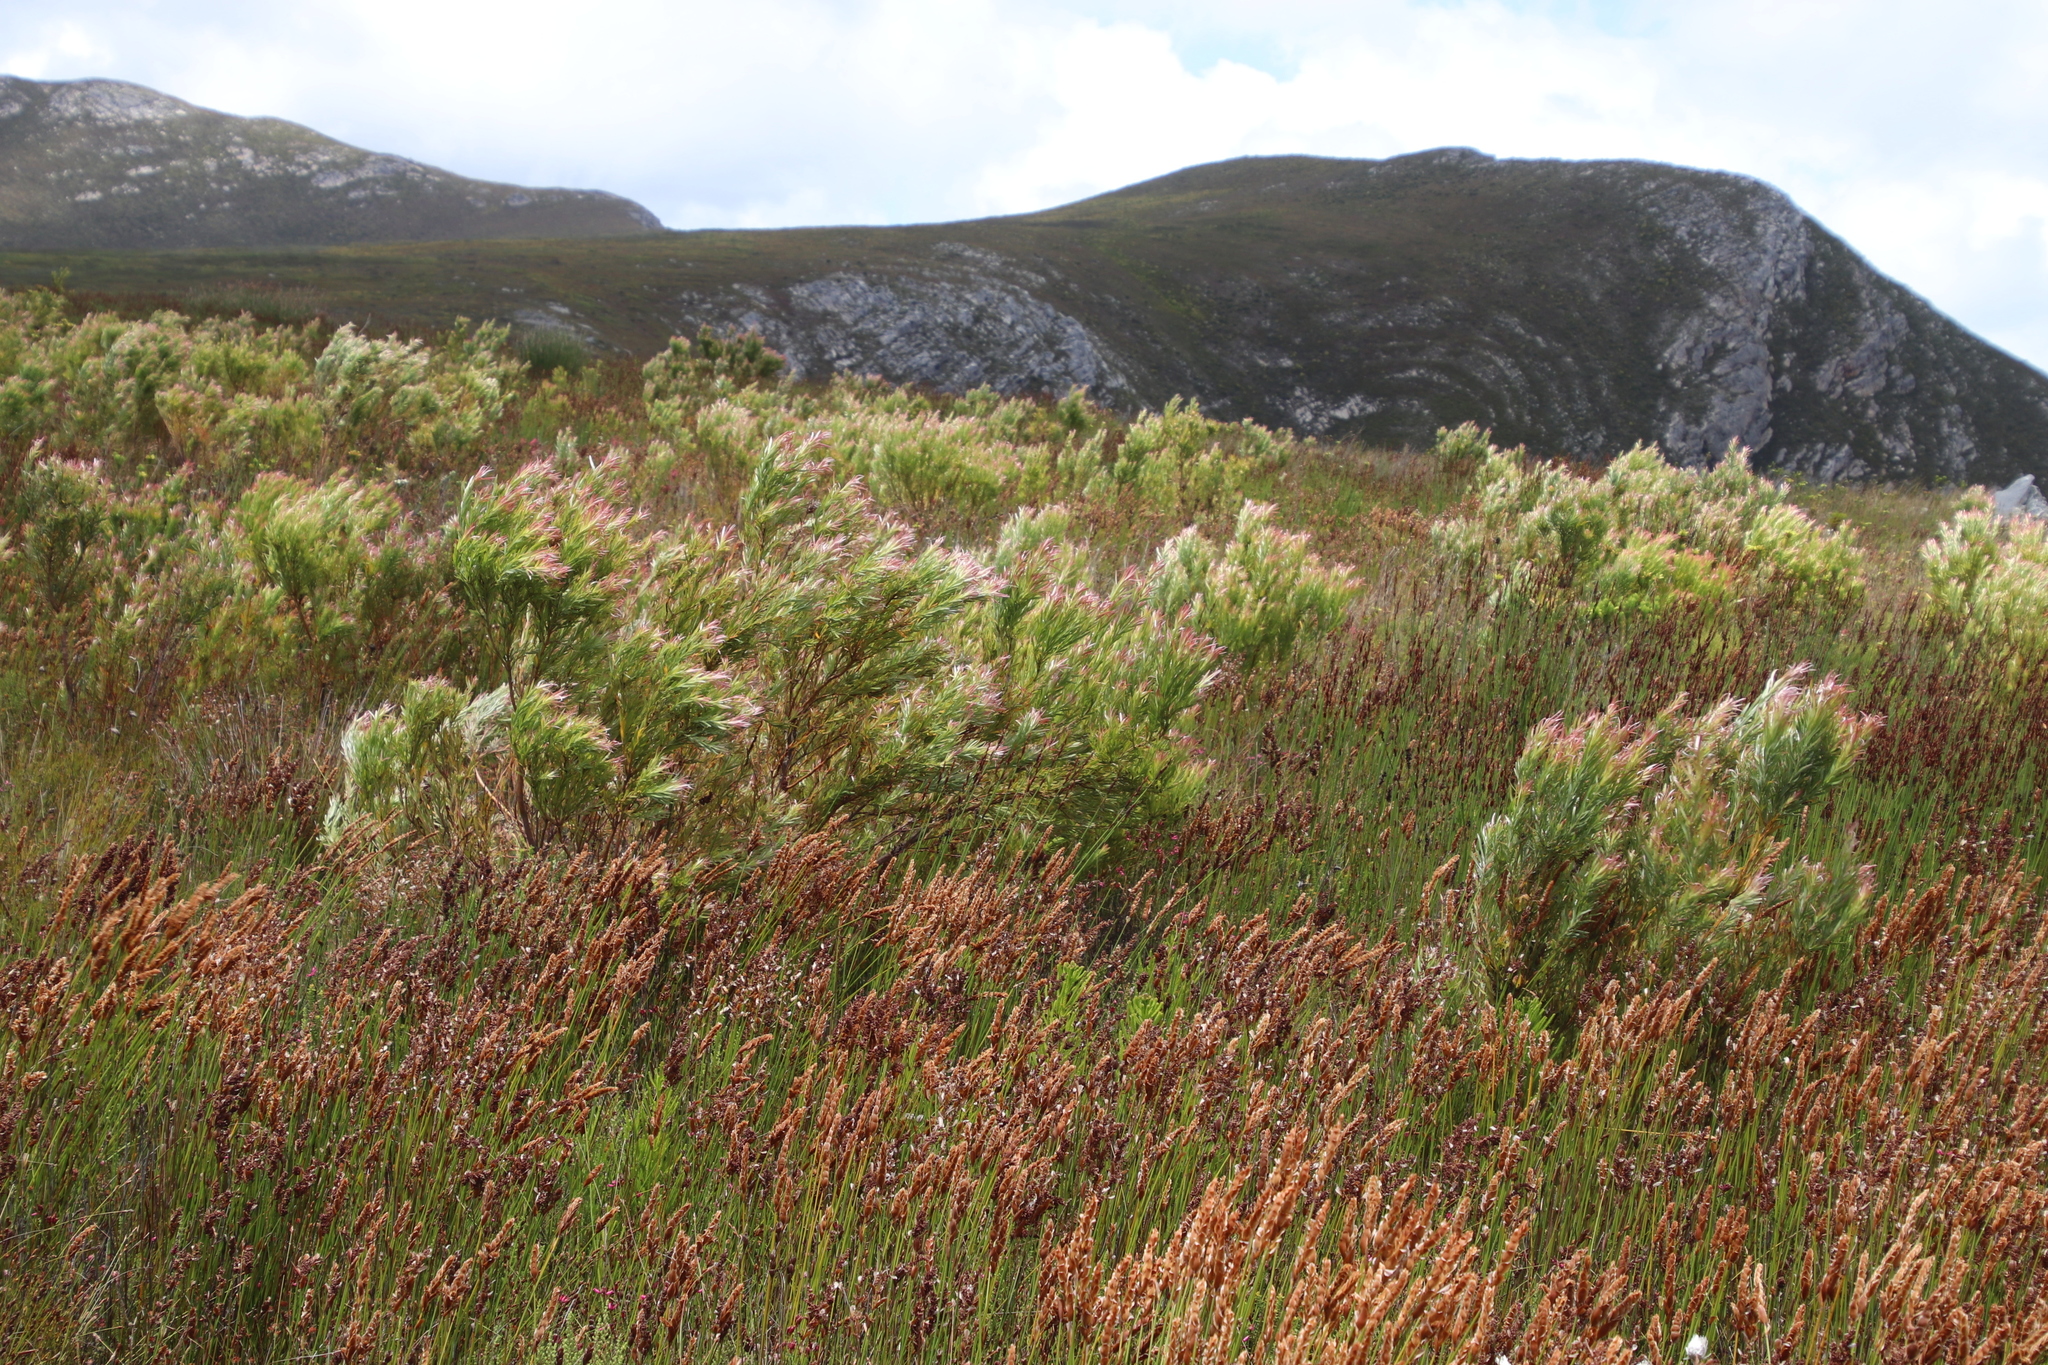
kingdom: Plantae
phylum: Tracheophyta
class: Magnoliopsida
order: Proteales
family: Proteaceae
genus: Leucadendron
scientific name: Leucadendron xanthoconus
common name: Sickle-leaf conebush
